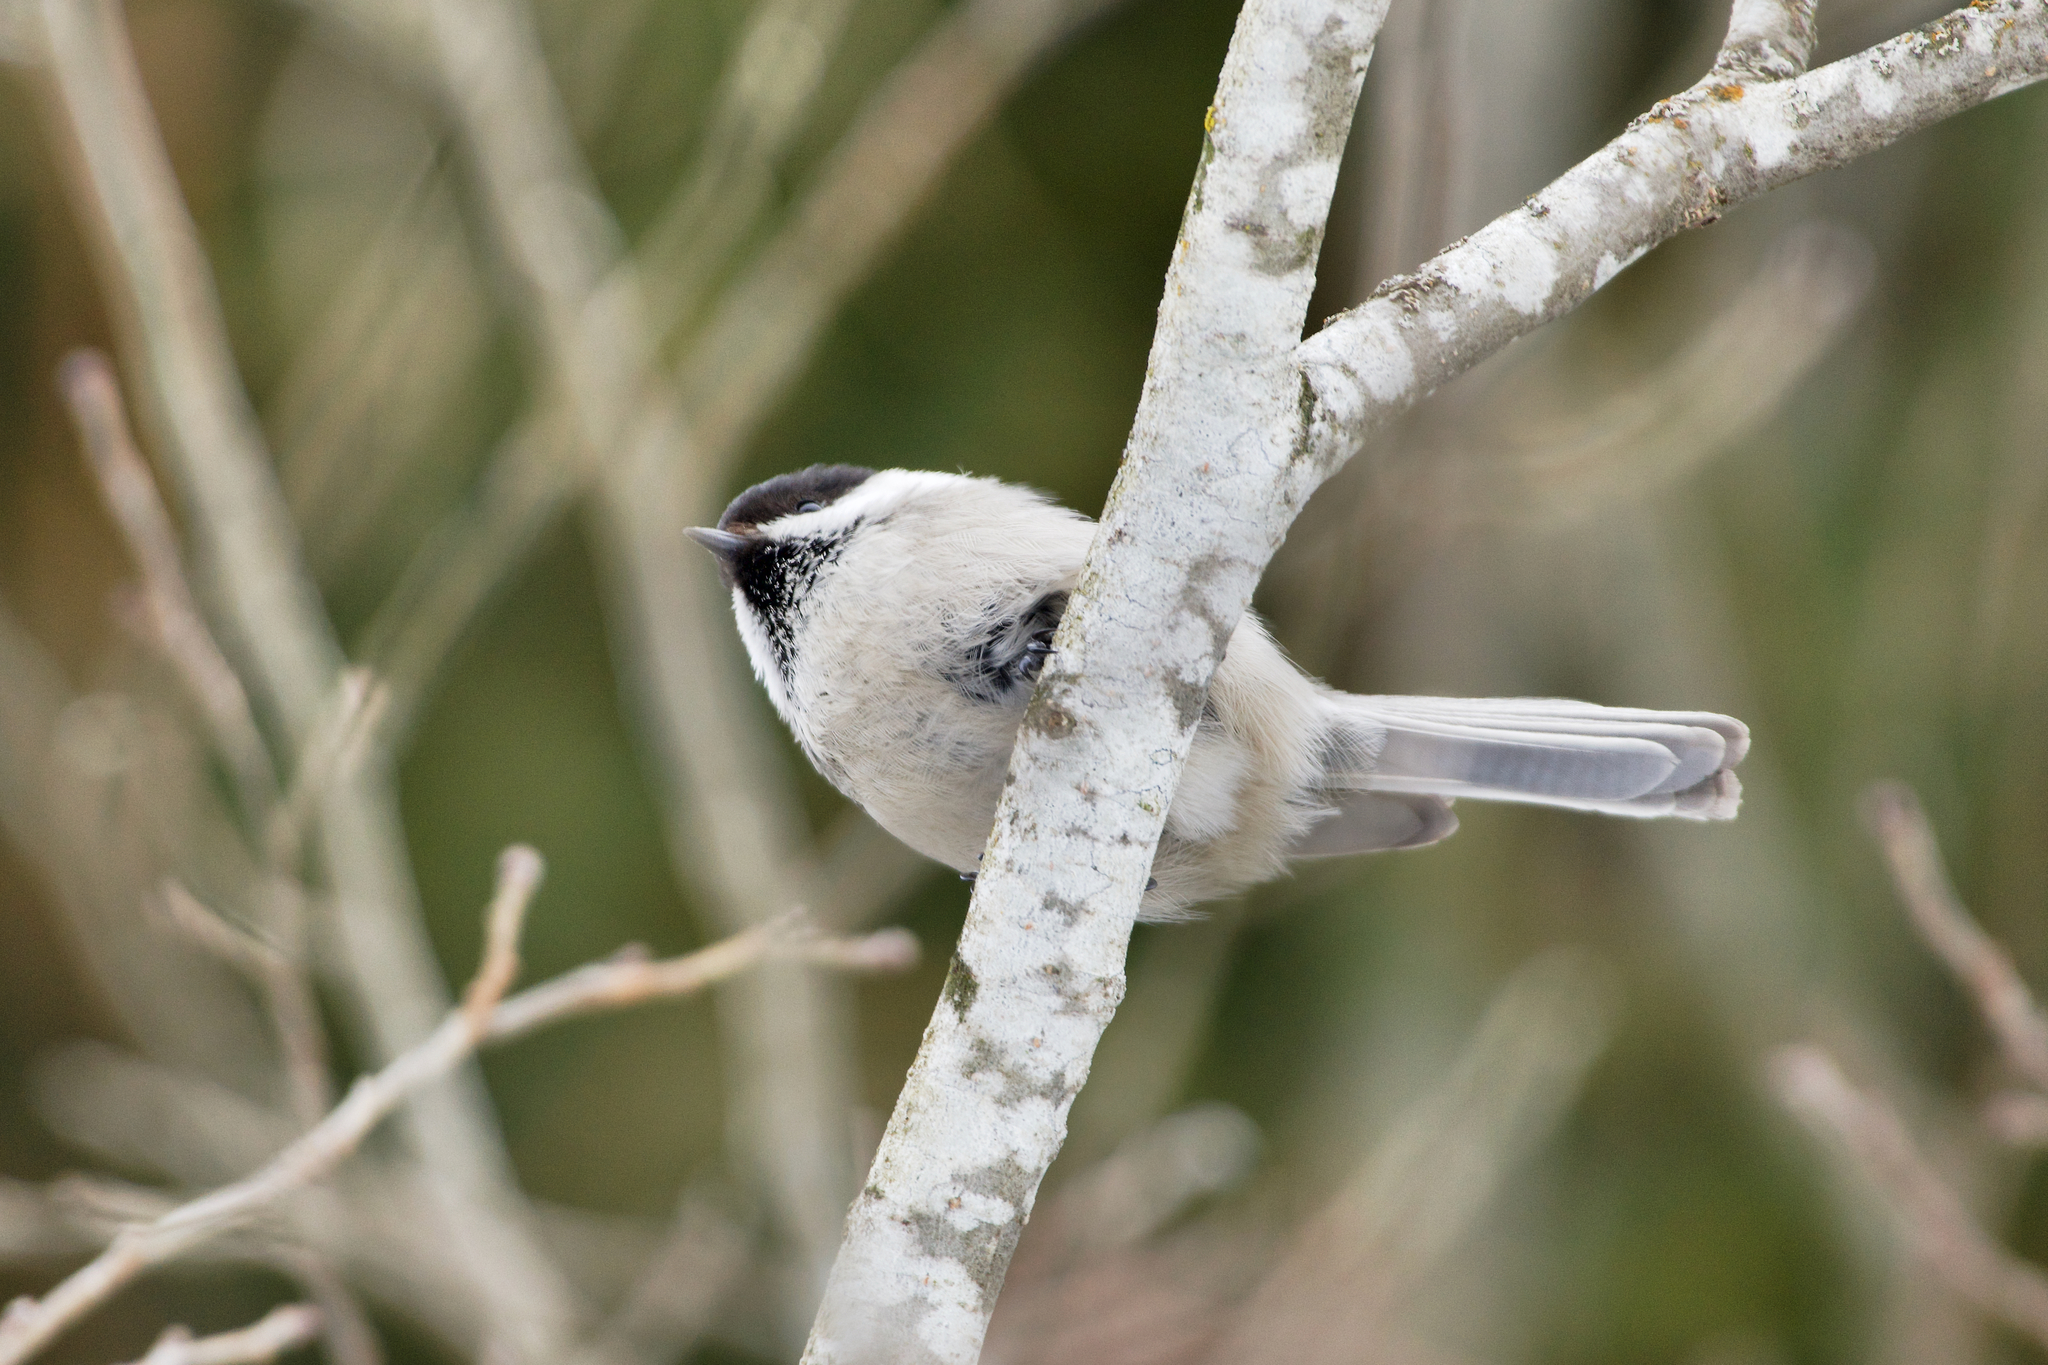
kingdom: Animalia
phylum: Chordata
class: Aves
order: Passeriformes
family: Paridae
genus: Poecile
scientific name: Poecile montanus
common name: Willow tit
